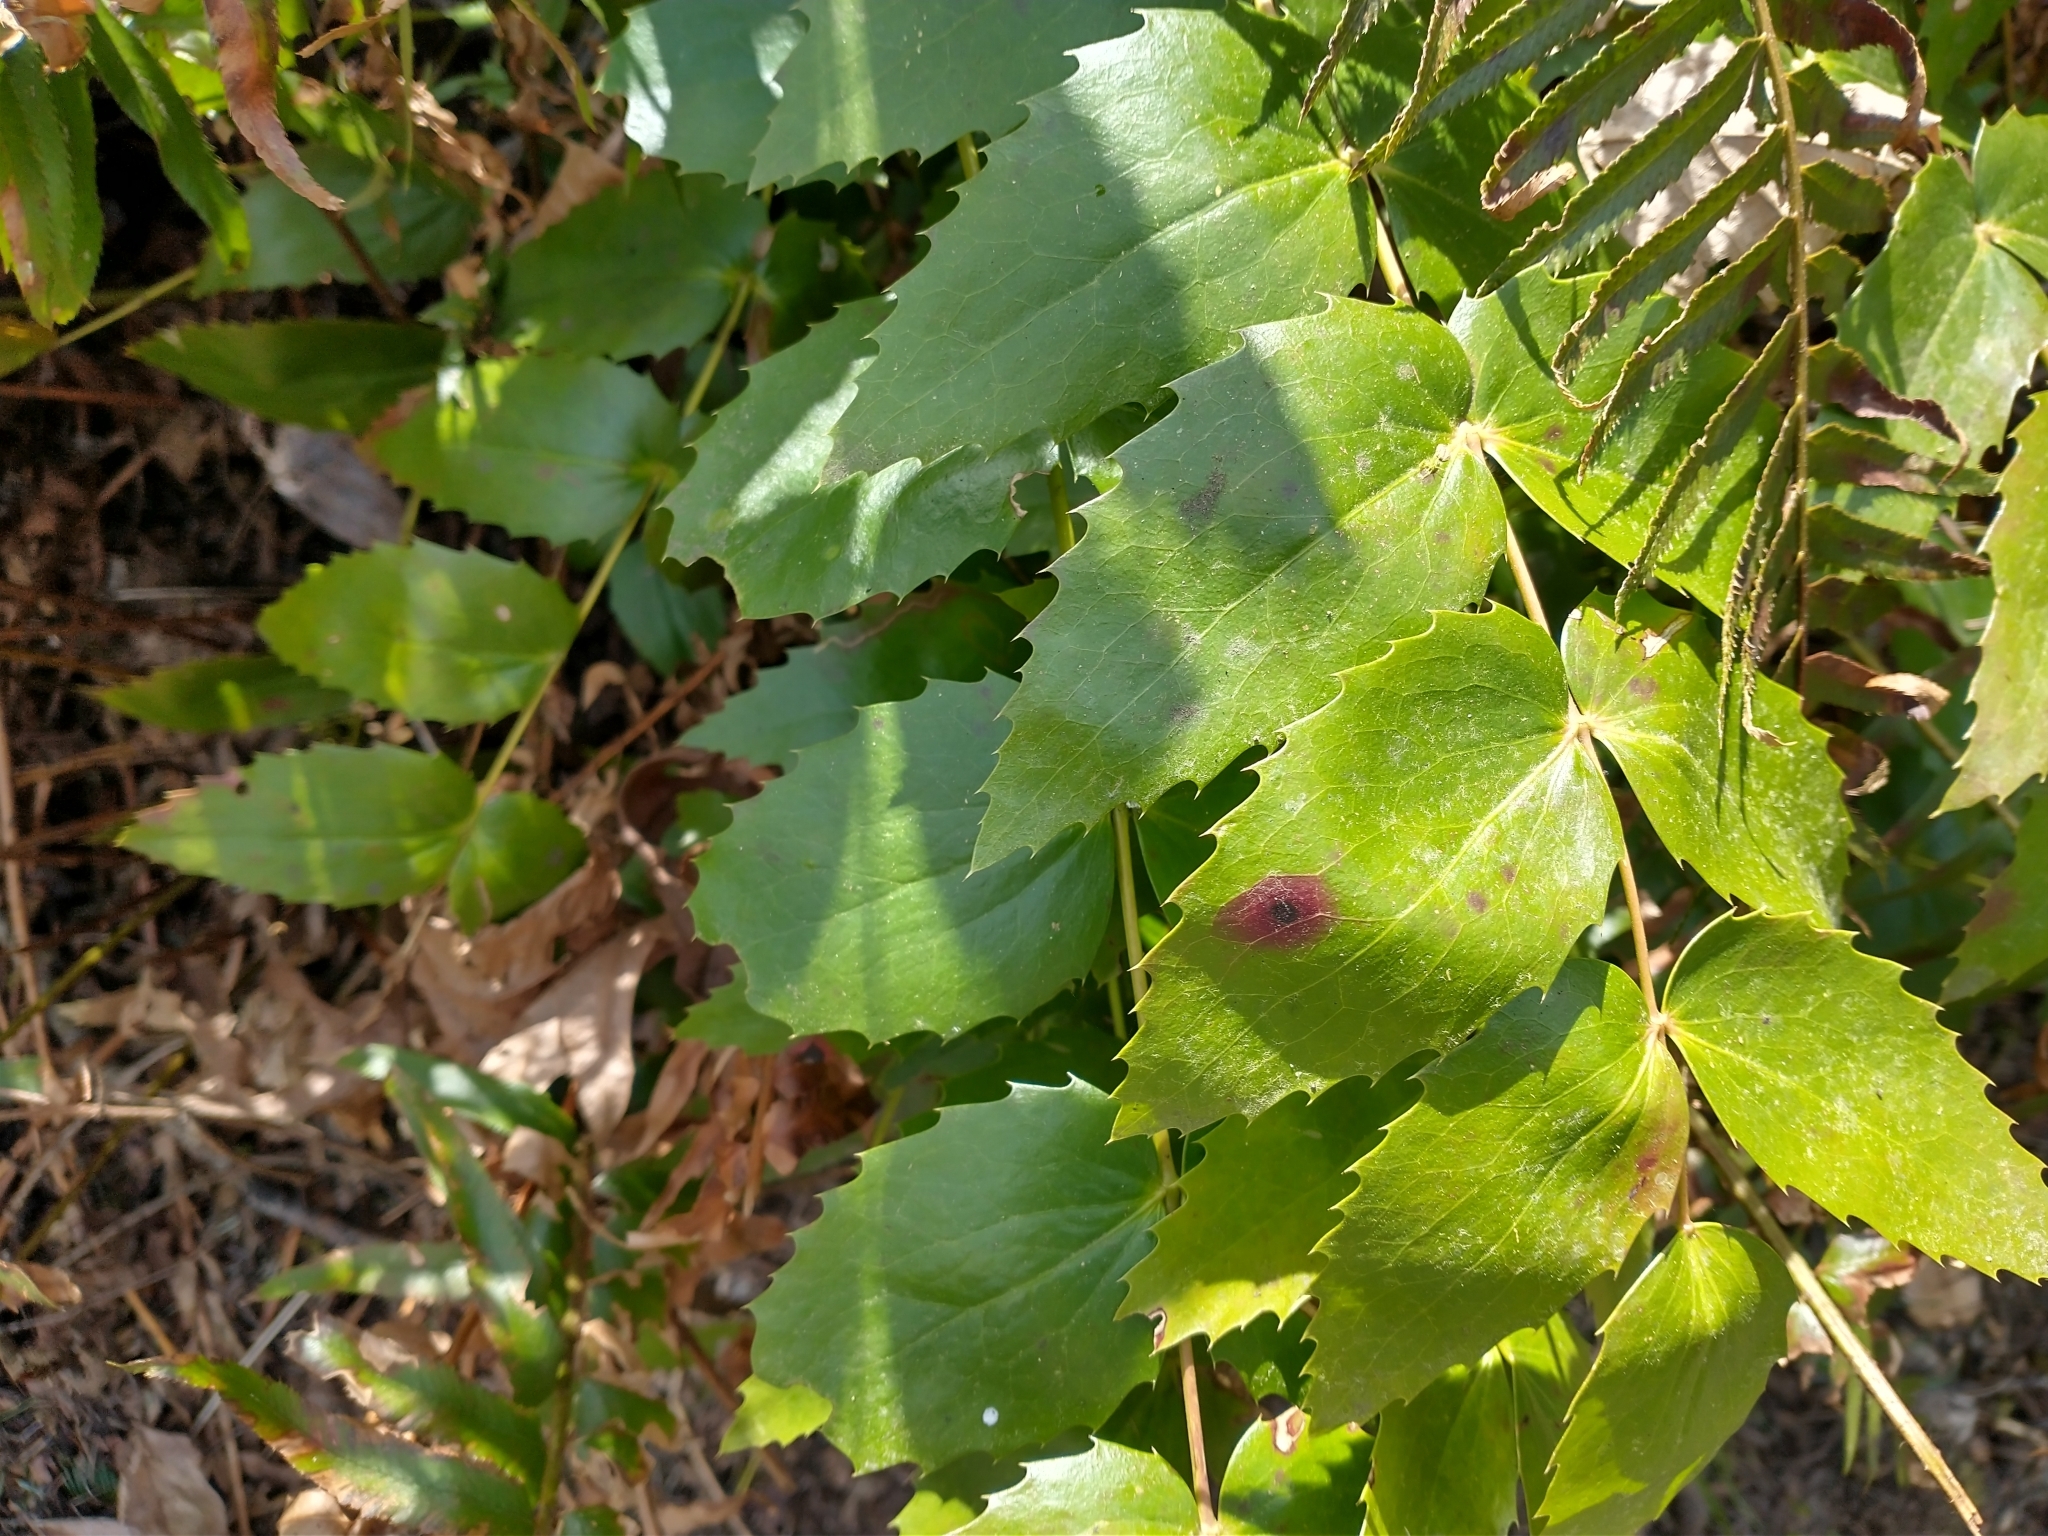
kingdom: Plantae
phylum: Tracheophyta
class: Magnoliopsida
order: Ranunculales
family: Berberidaceae
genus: Mahonia
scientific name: Mahonia nervosa
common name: Cascade oregon-grape
